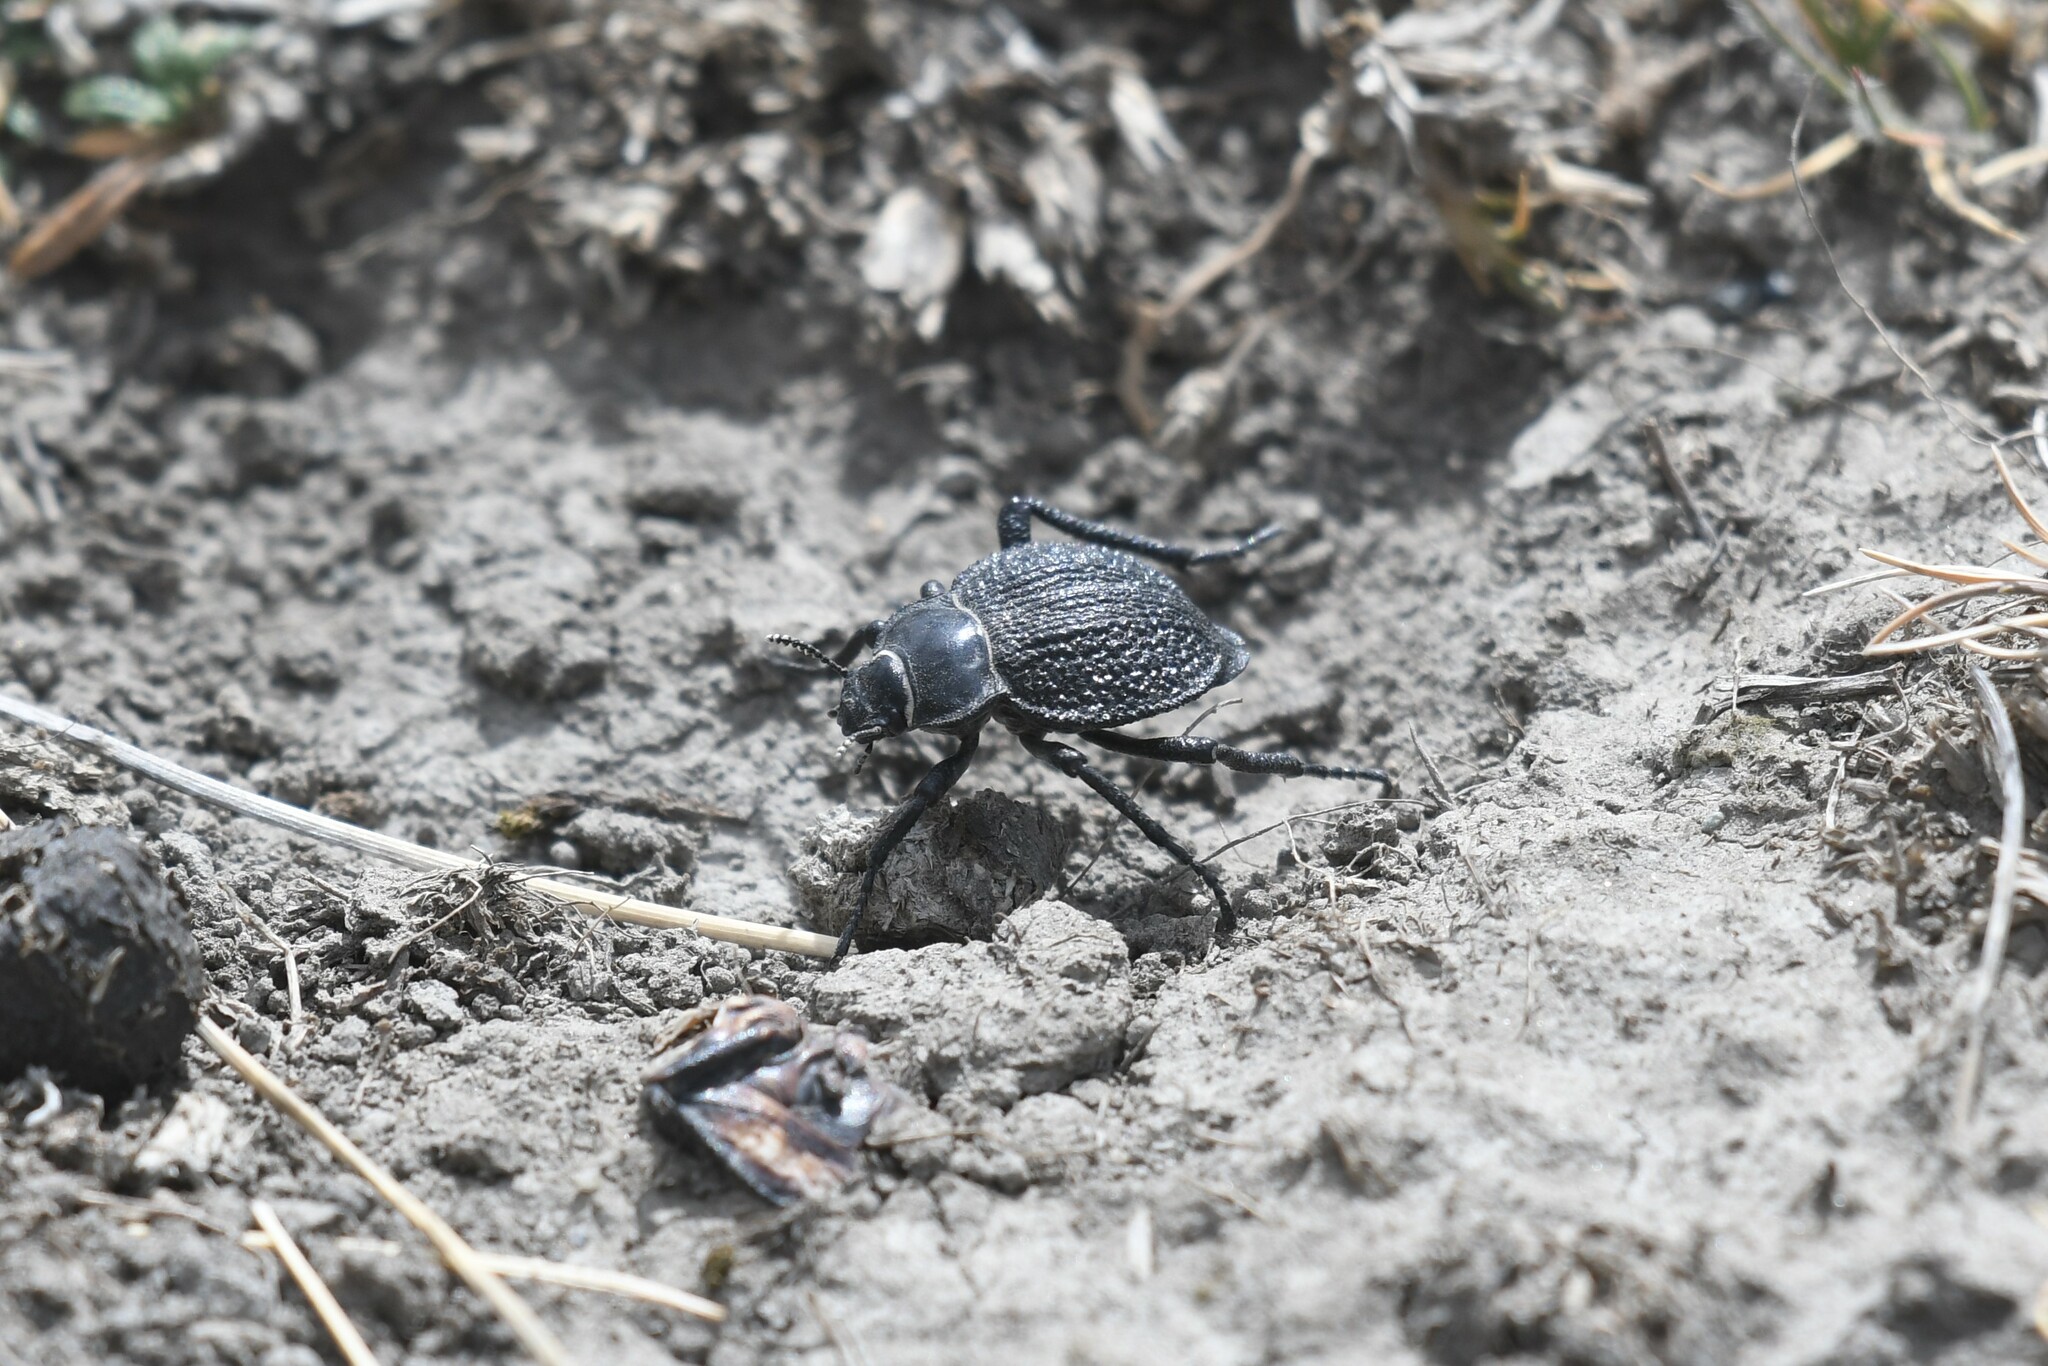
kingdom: Animalia
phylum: Arthropoda
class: Insecta
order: Coleoptera
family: Tenebrionidae
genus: Nyctelia
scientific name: Nyctelia
